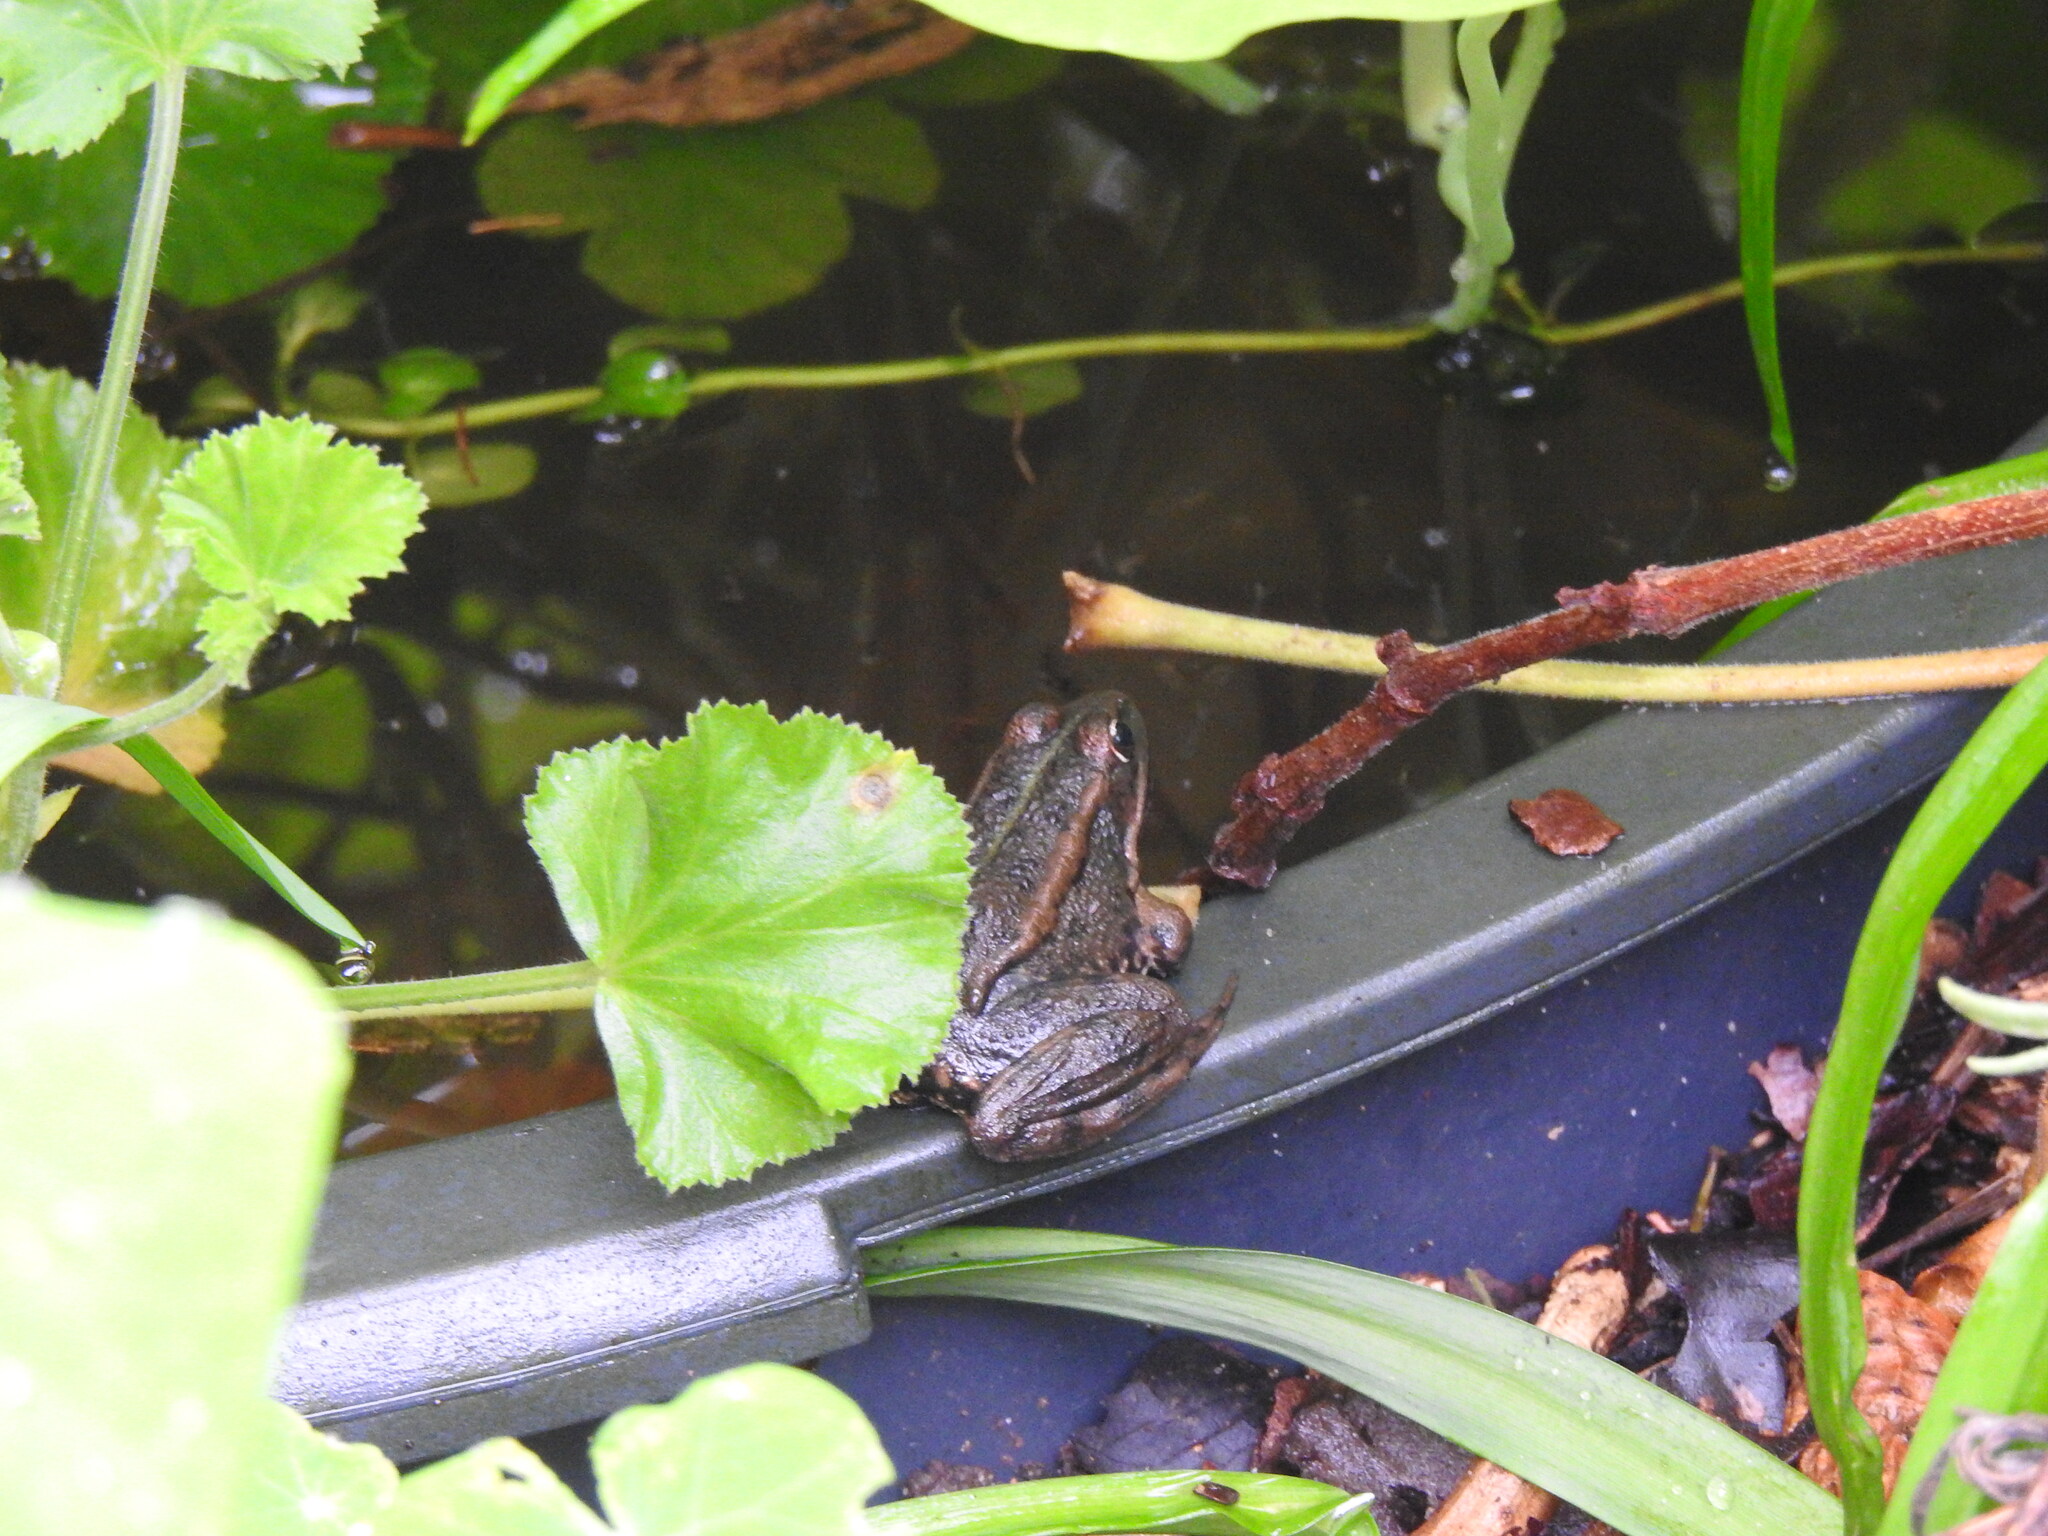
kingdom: Animalia
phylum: Chordata
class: Amphibia
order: Anura
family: Ranidae
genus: Pelophylax
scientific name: Pelophylax perezi
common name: Perez's frog
